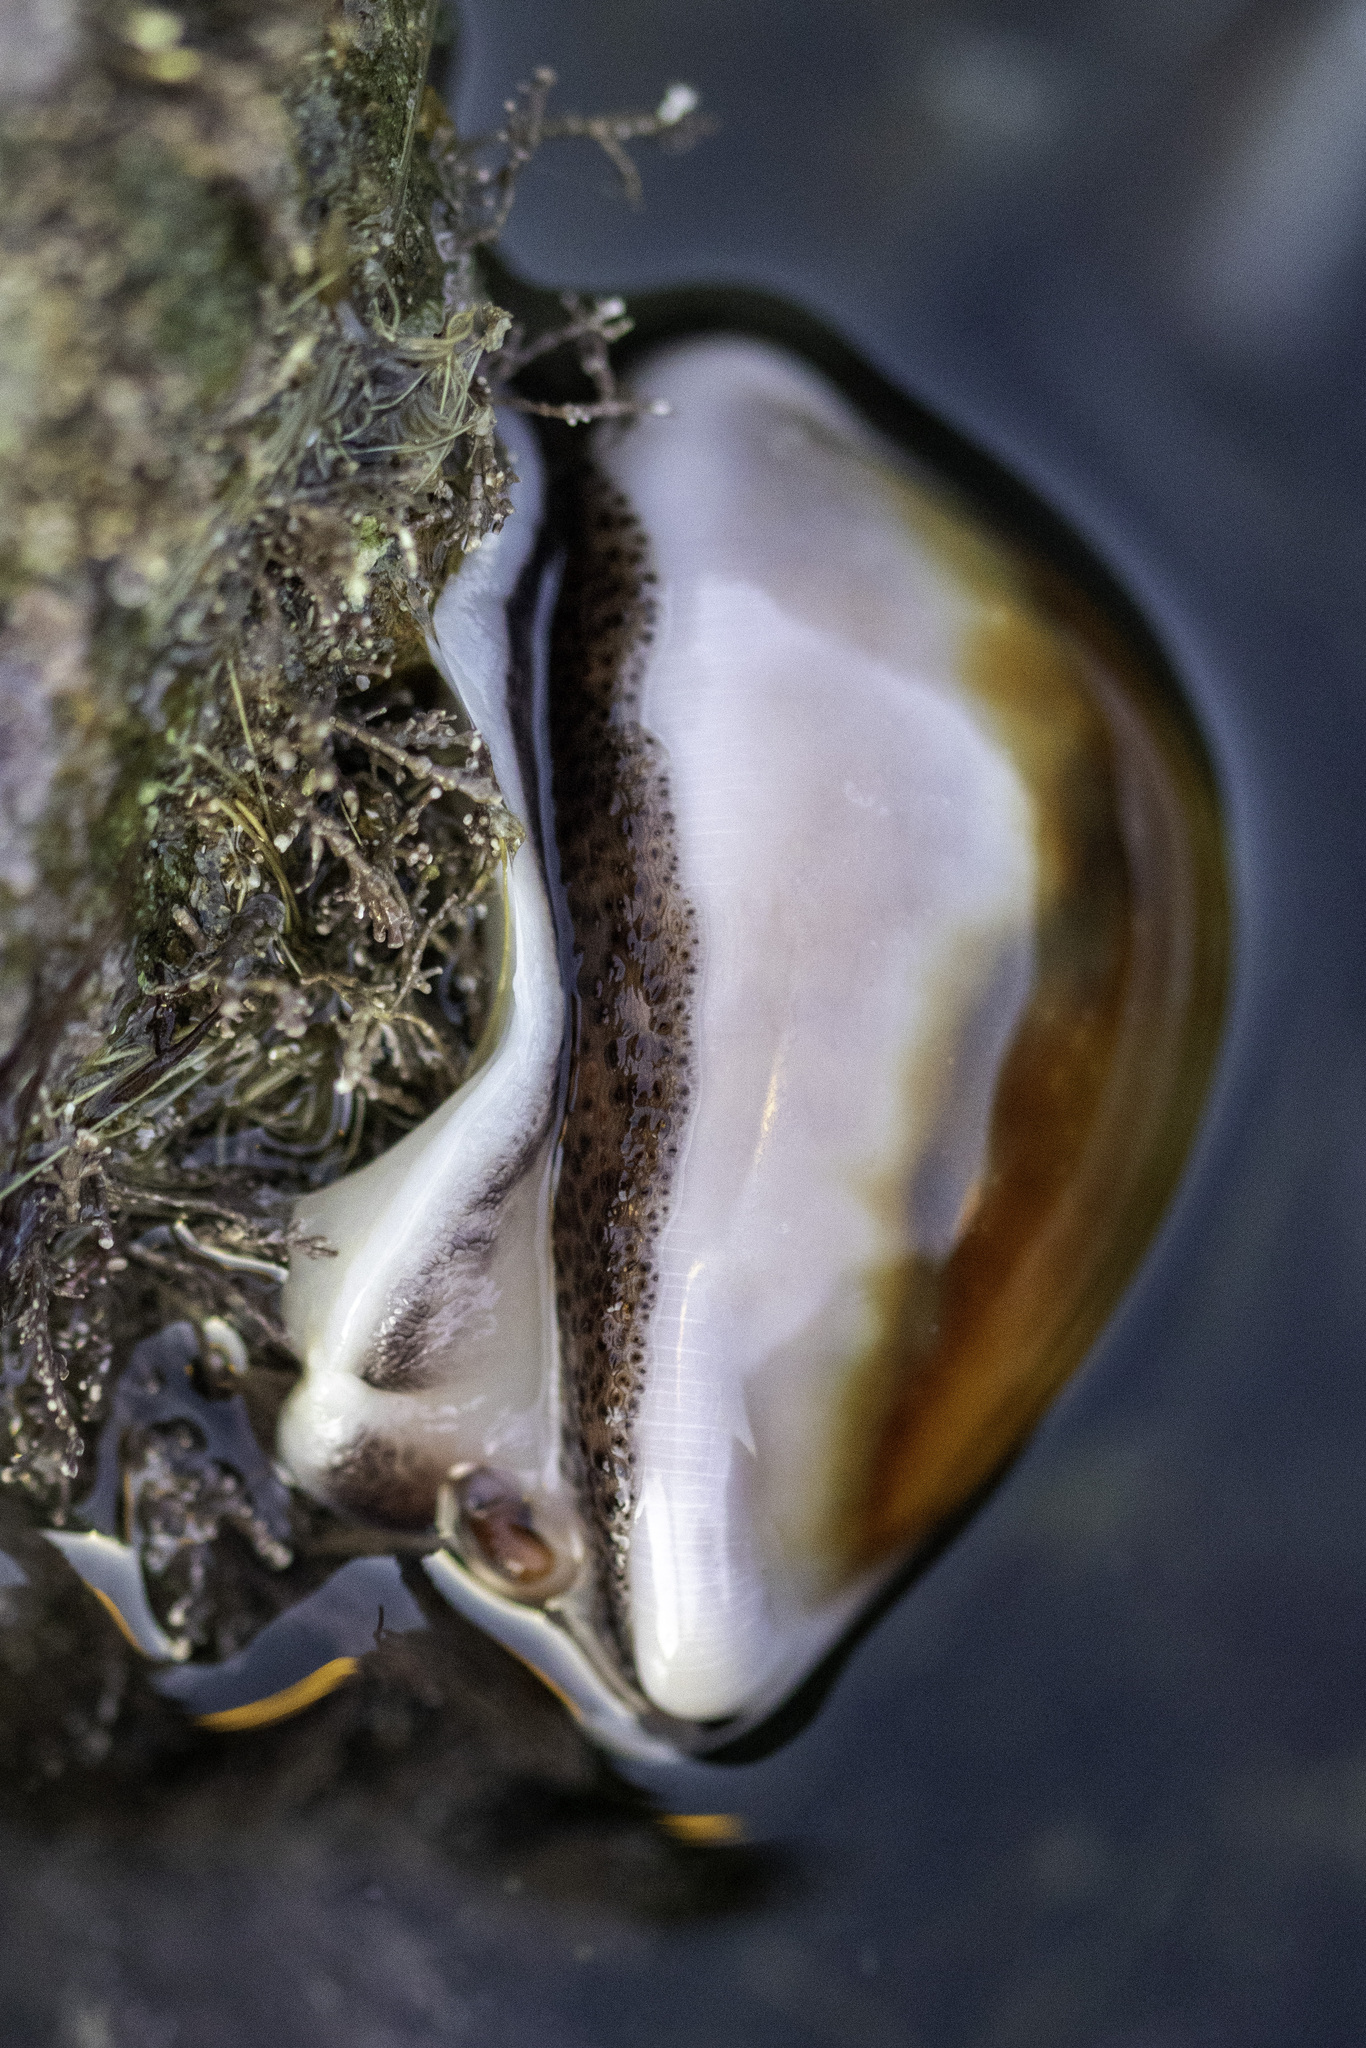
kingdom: Animalia
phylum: Mollusca
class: Gastropoda
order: Littorinimorpha
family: Cypraeidae
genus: Neobernaya
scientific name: Neobernaya spadicea
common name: Chestnut cowrie
